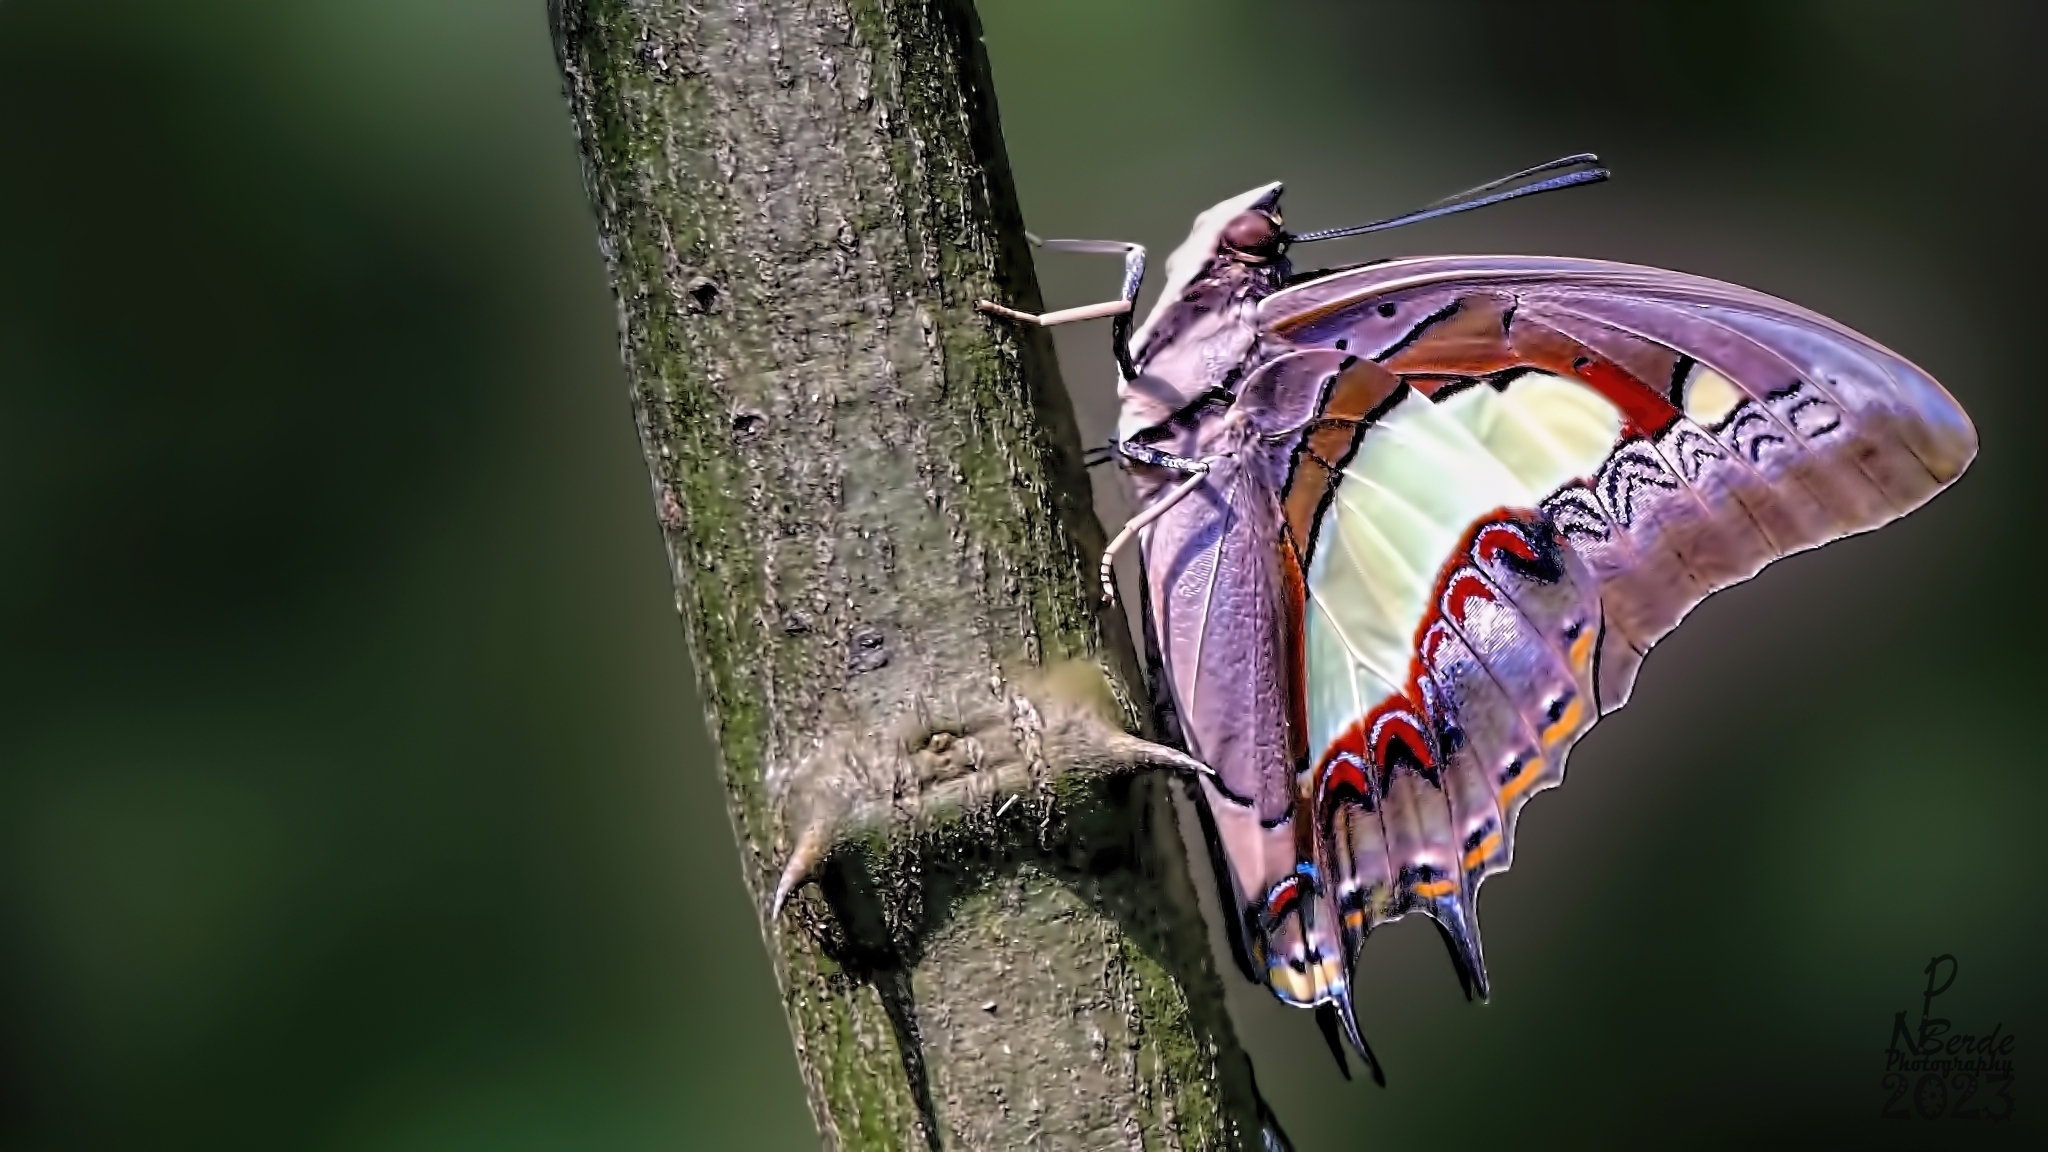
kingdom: Animalia
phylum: Arthropoda
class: Insecta
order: Lepidoptera
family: Nymphalidae
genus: Polyura
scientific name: Polyura
